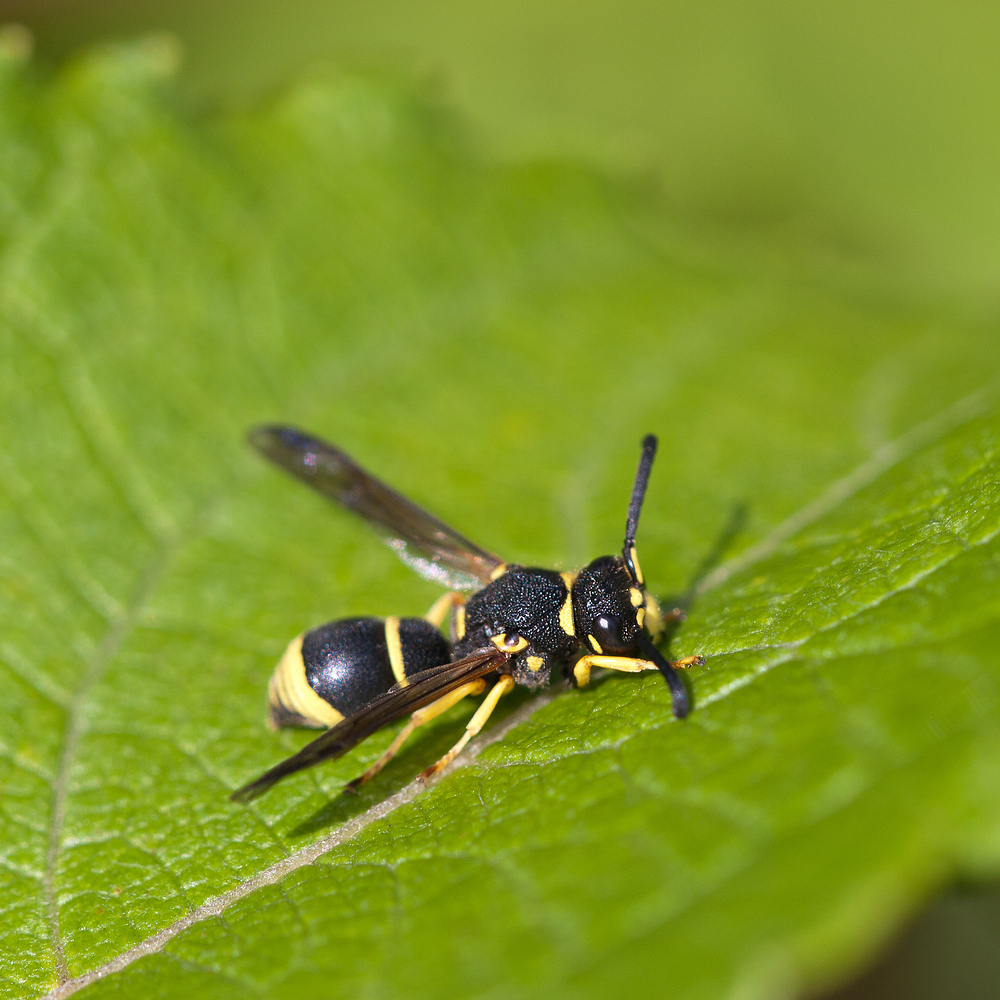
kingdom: Animalia
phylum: Arthropoda
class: Insecta
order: Hymenoptera
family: Eumenidae
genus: Allodynerus
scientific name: Allodynerus delphinalis
